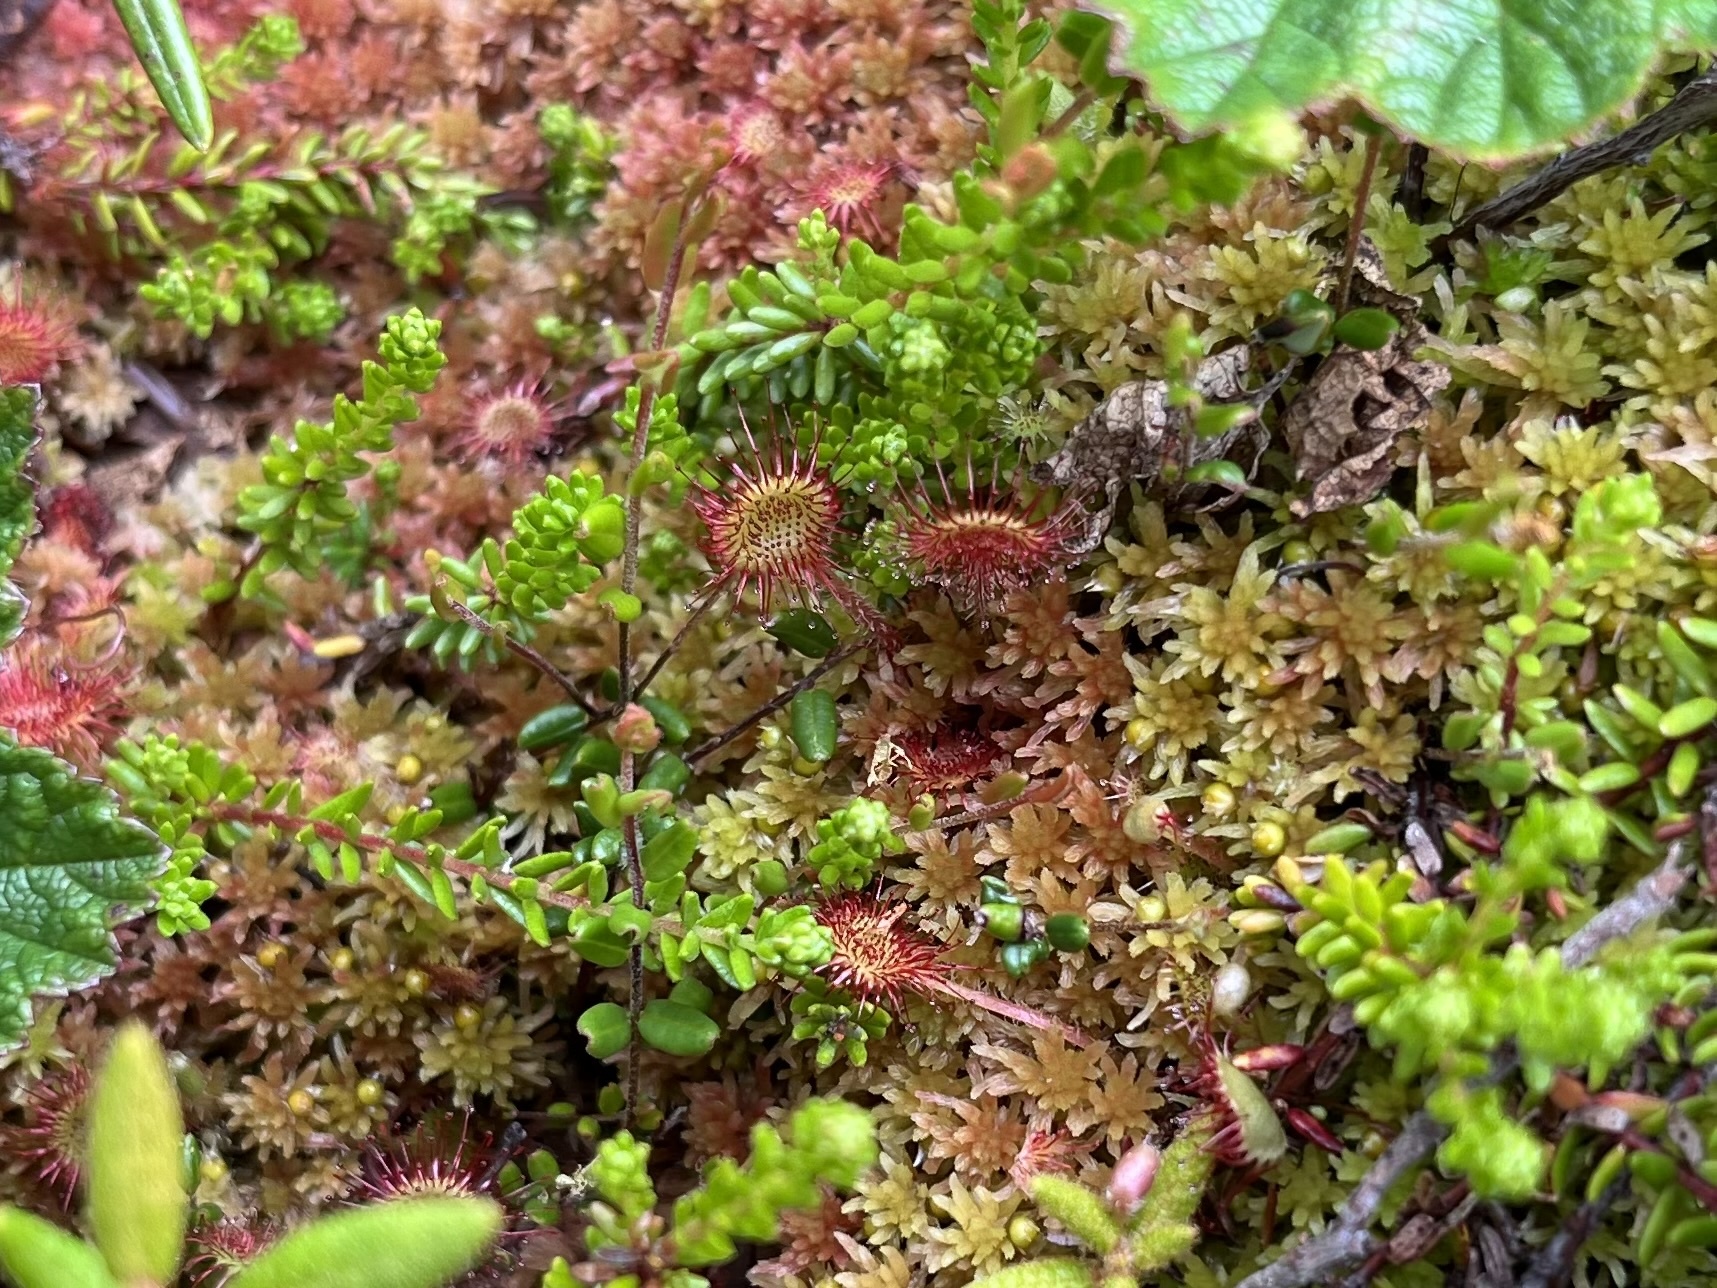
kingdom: Plantae
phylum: Tracheophyta
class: Magnoliopsida
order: Caryophyllales
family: Droseraceae
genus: Drosera
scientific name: Drosera rotundifolia
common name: Round-leaved sundew
